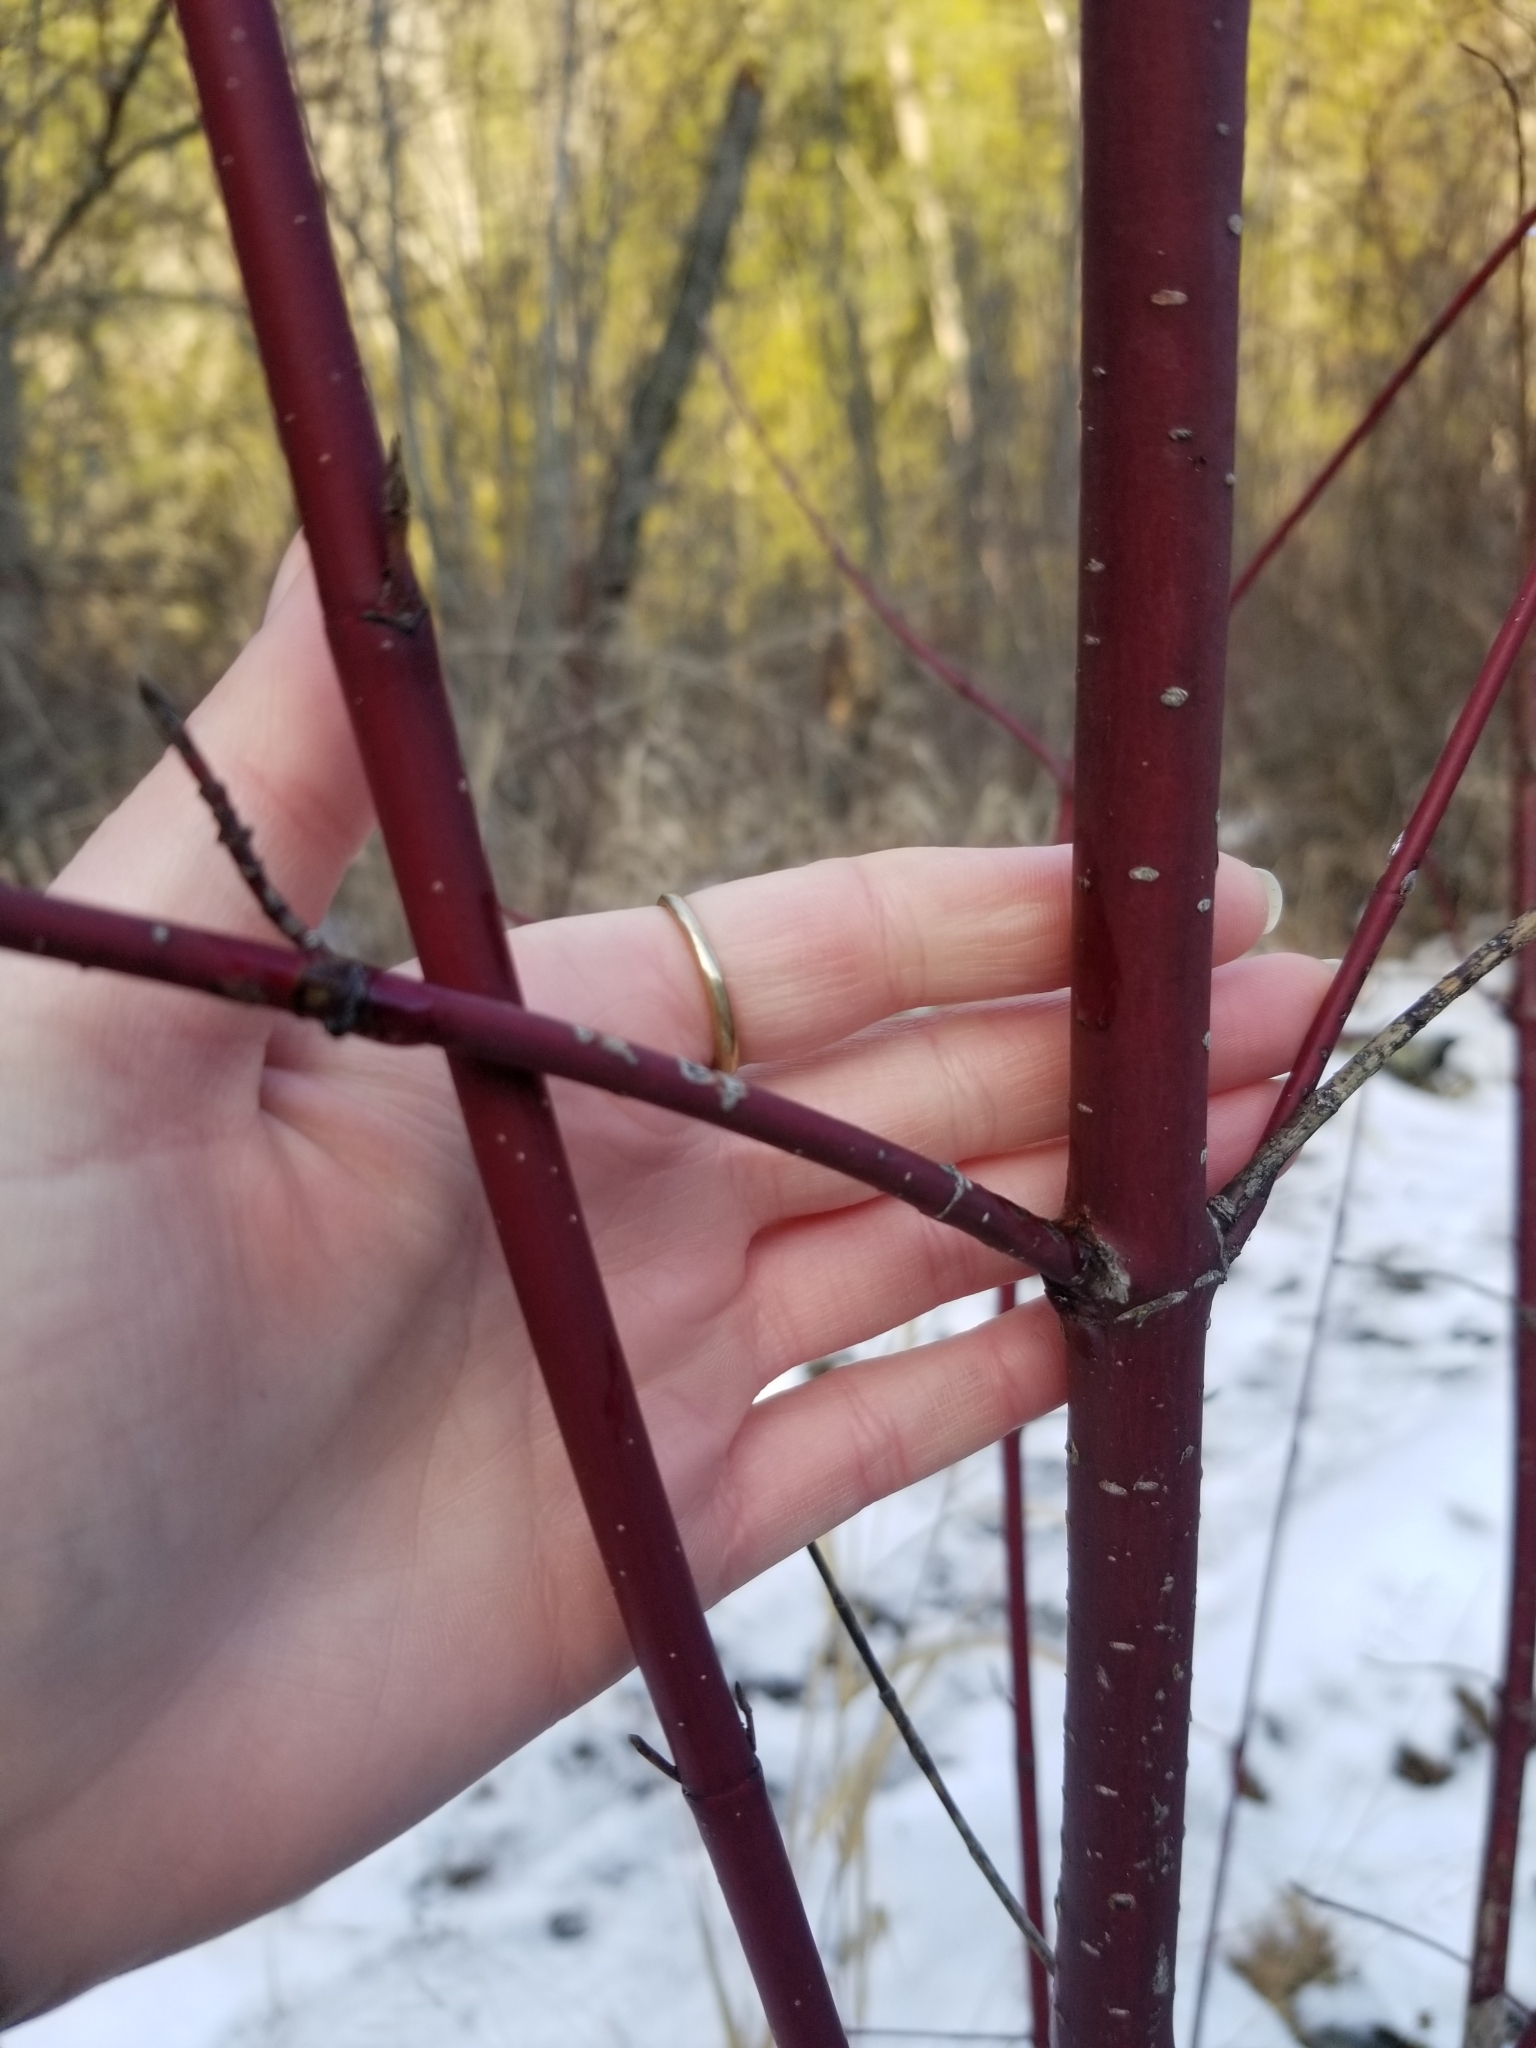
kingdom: Plantae
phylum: Tracheophyta
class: Magnoliopsida
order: Cornales
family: Cornaceae
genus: Cornus
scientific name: Cornus sericea
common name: Red-osier dogwood
